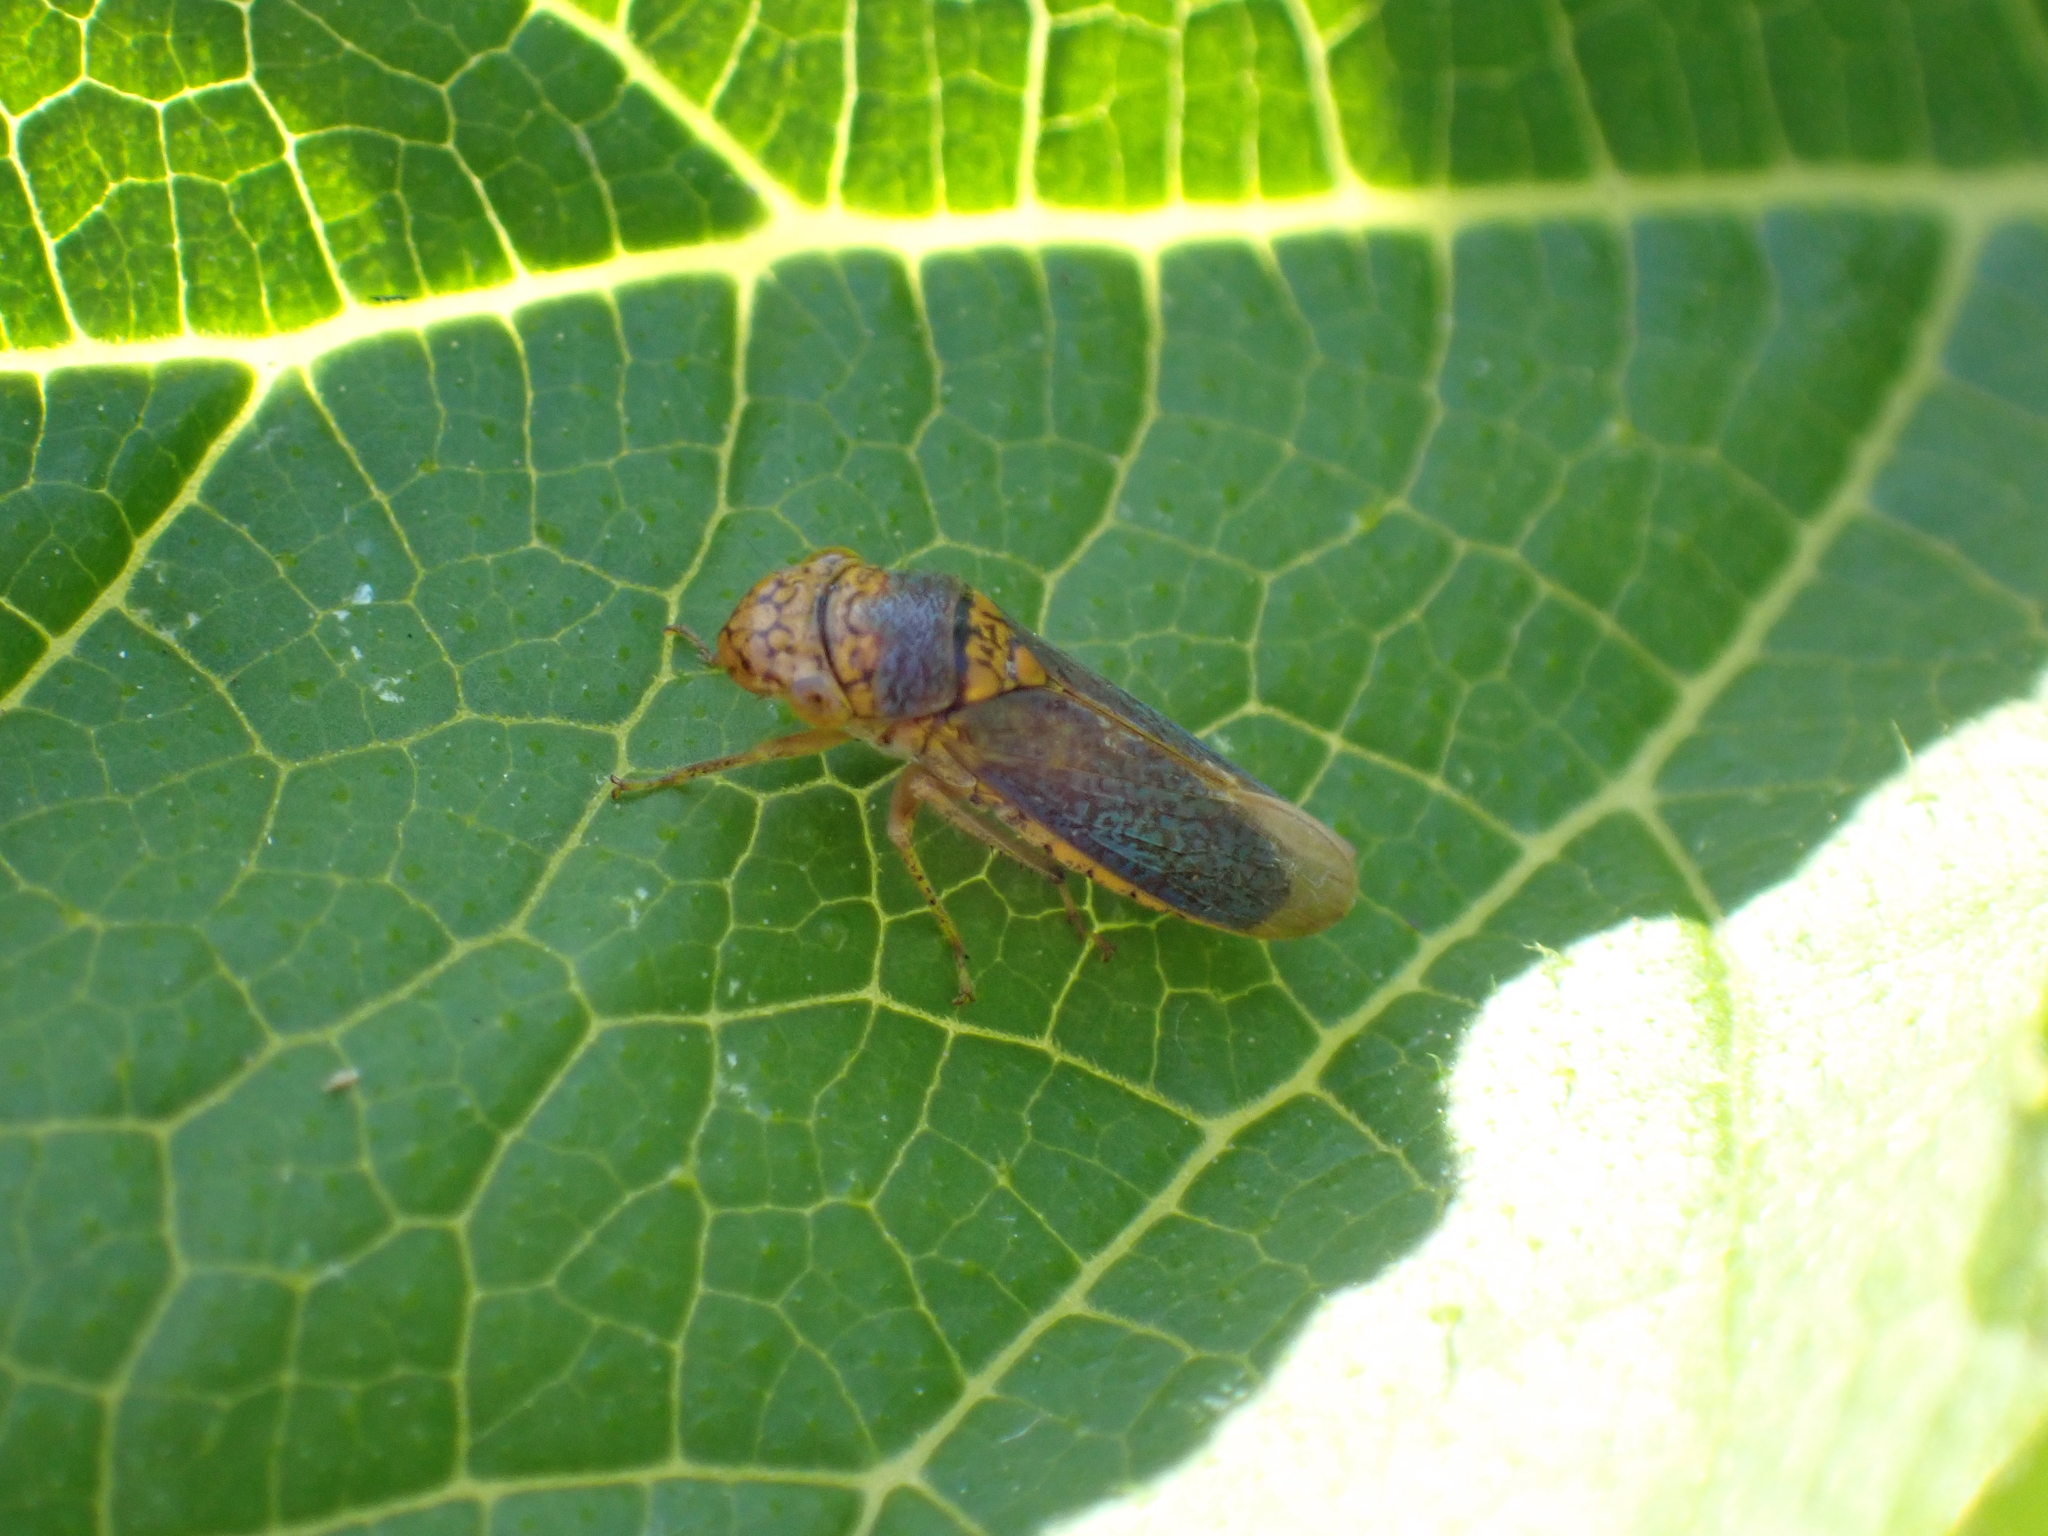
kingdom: Animalia
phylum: Arthropoda
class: Insecta
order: Hemiptera
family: Cicadellidae
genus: Oncometopia
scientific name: Oncometopia orbona
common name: Broad-headed sharpshooter
